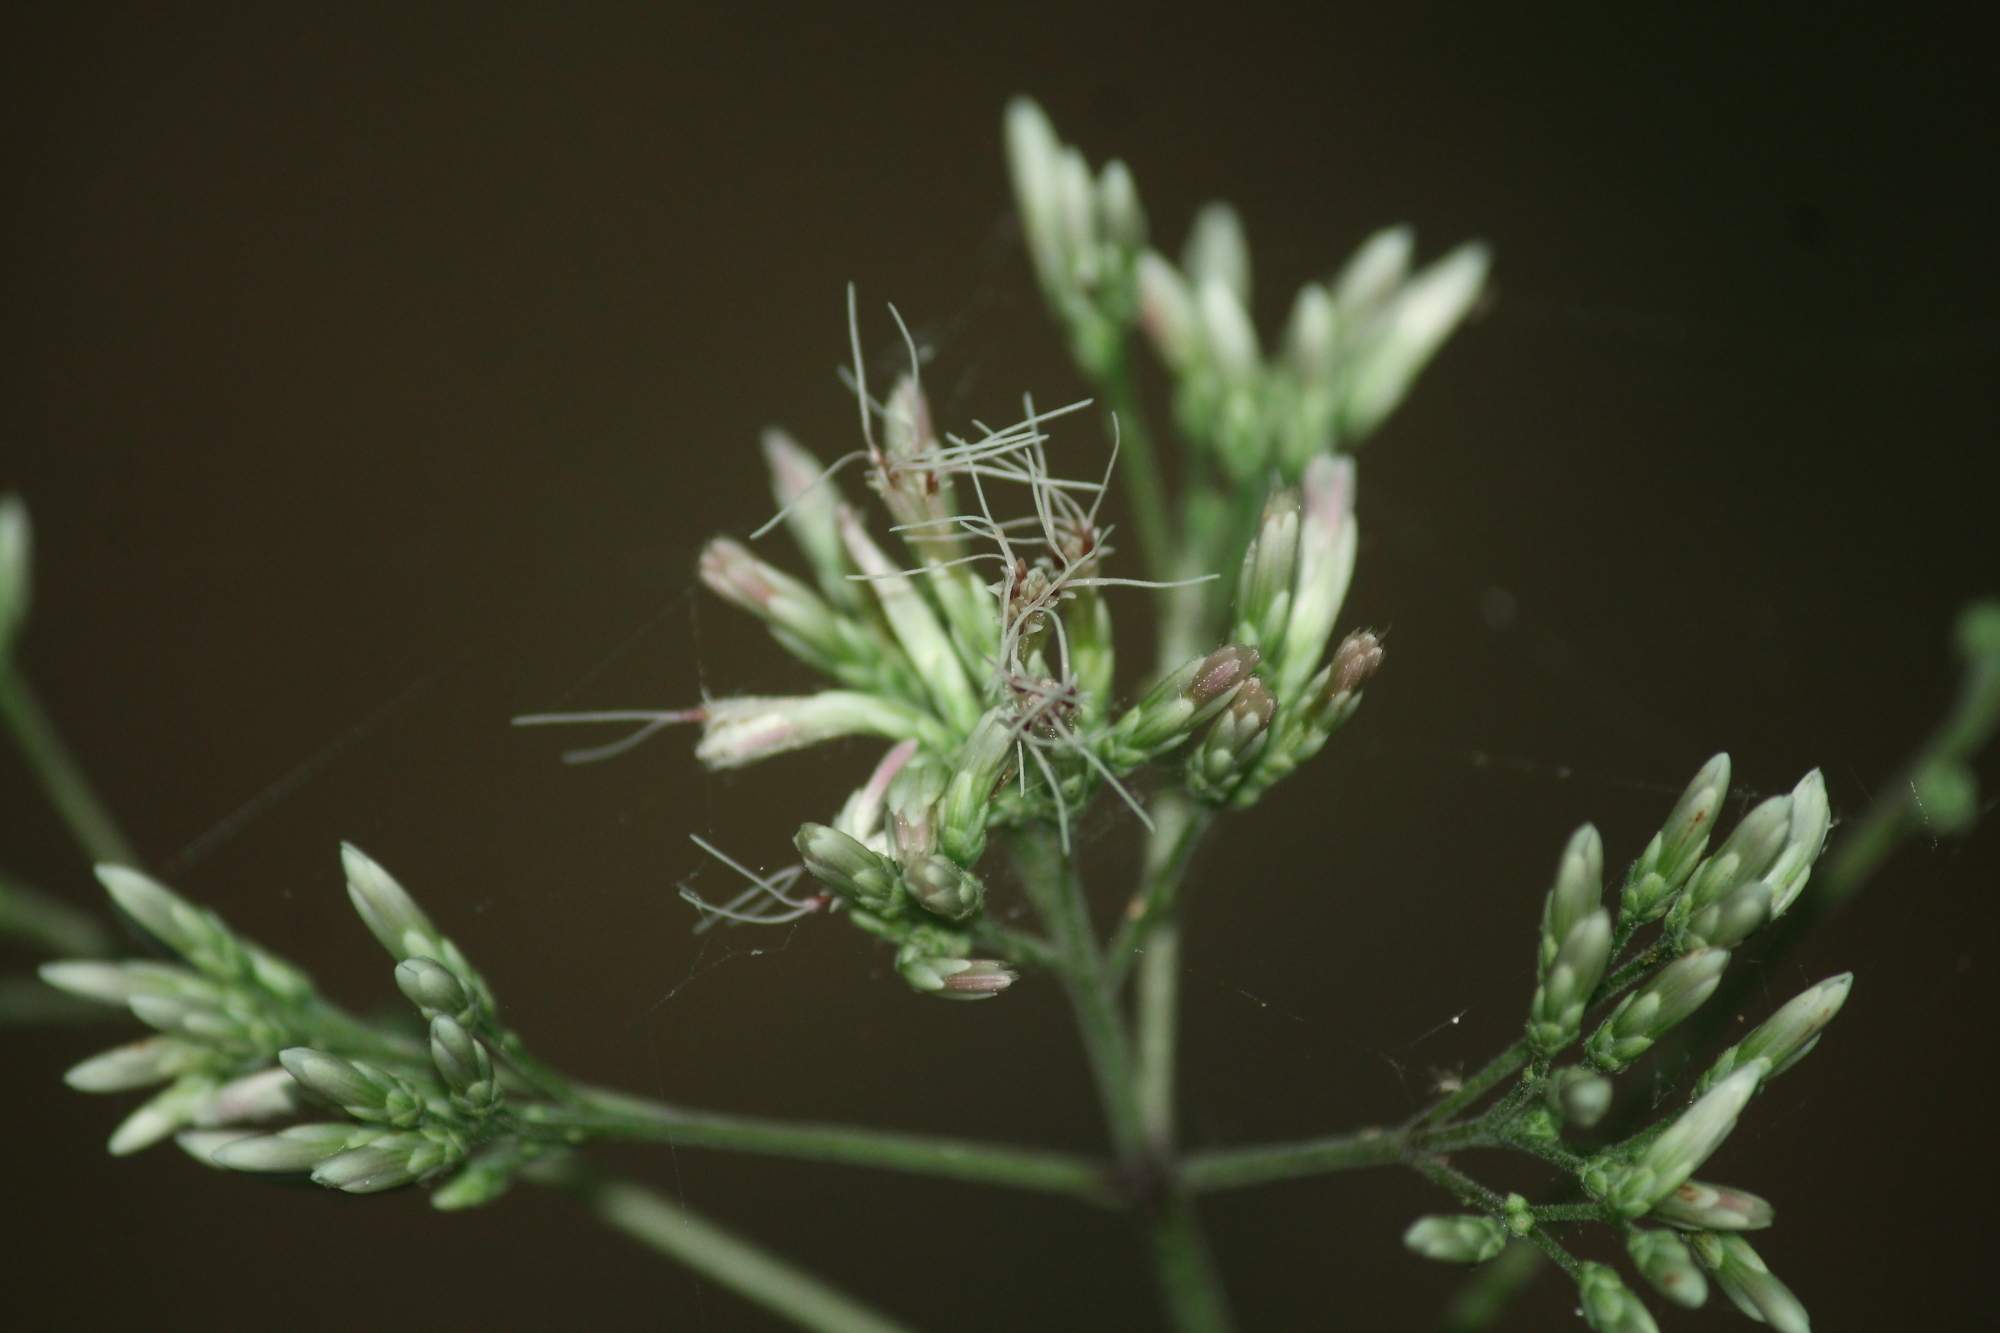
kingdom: Plantae
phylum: Tracheophyta
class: Magnoliopsida
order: Asterales
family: Asteraceae
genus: Eutrochium
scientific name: Eutrochium purpureum
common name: Gravelroot
